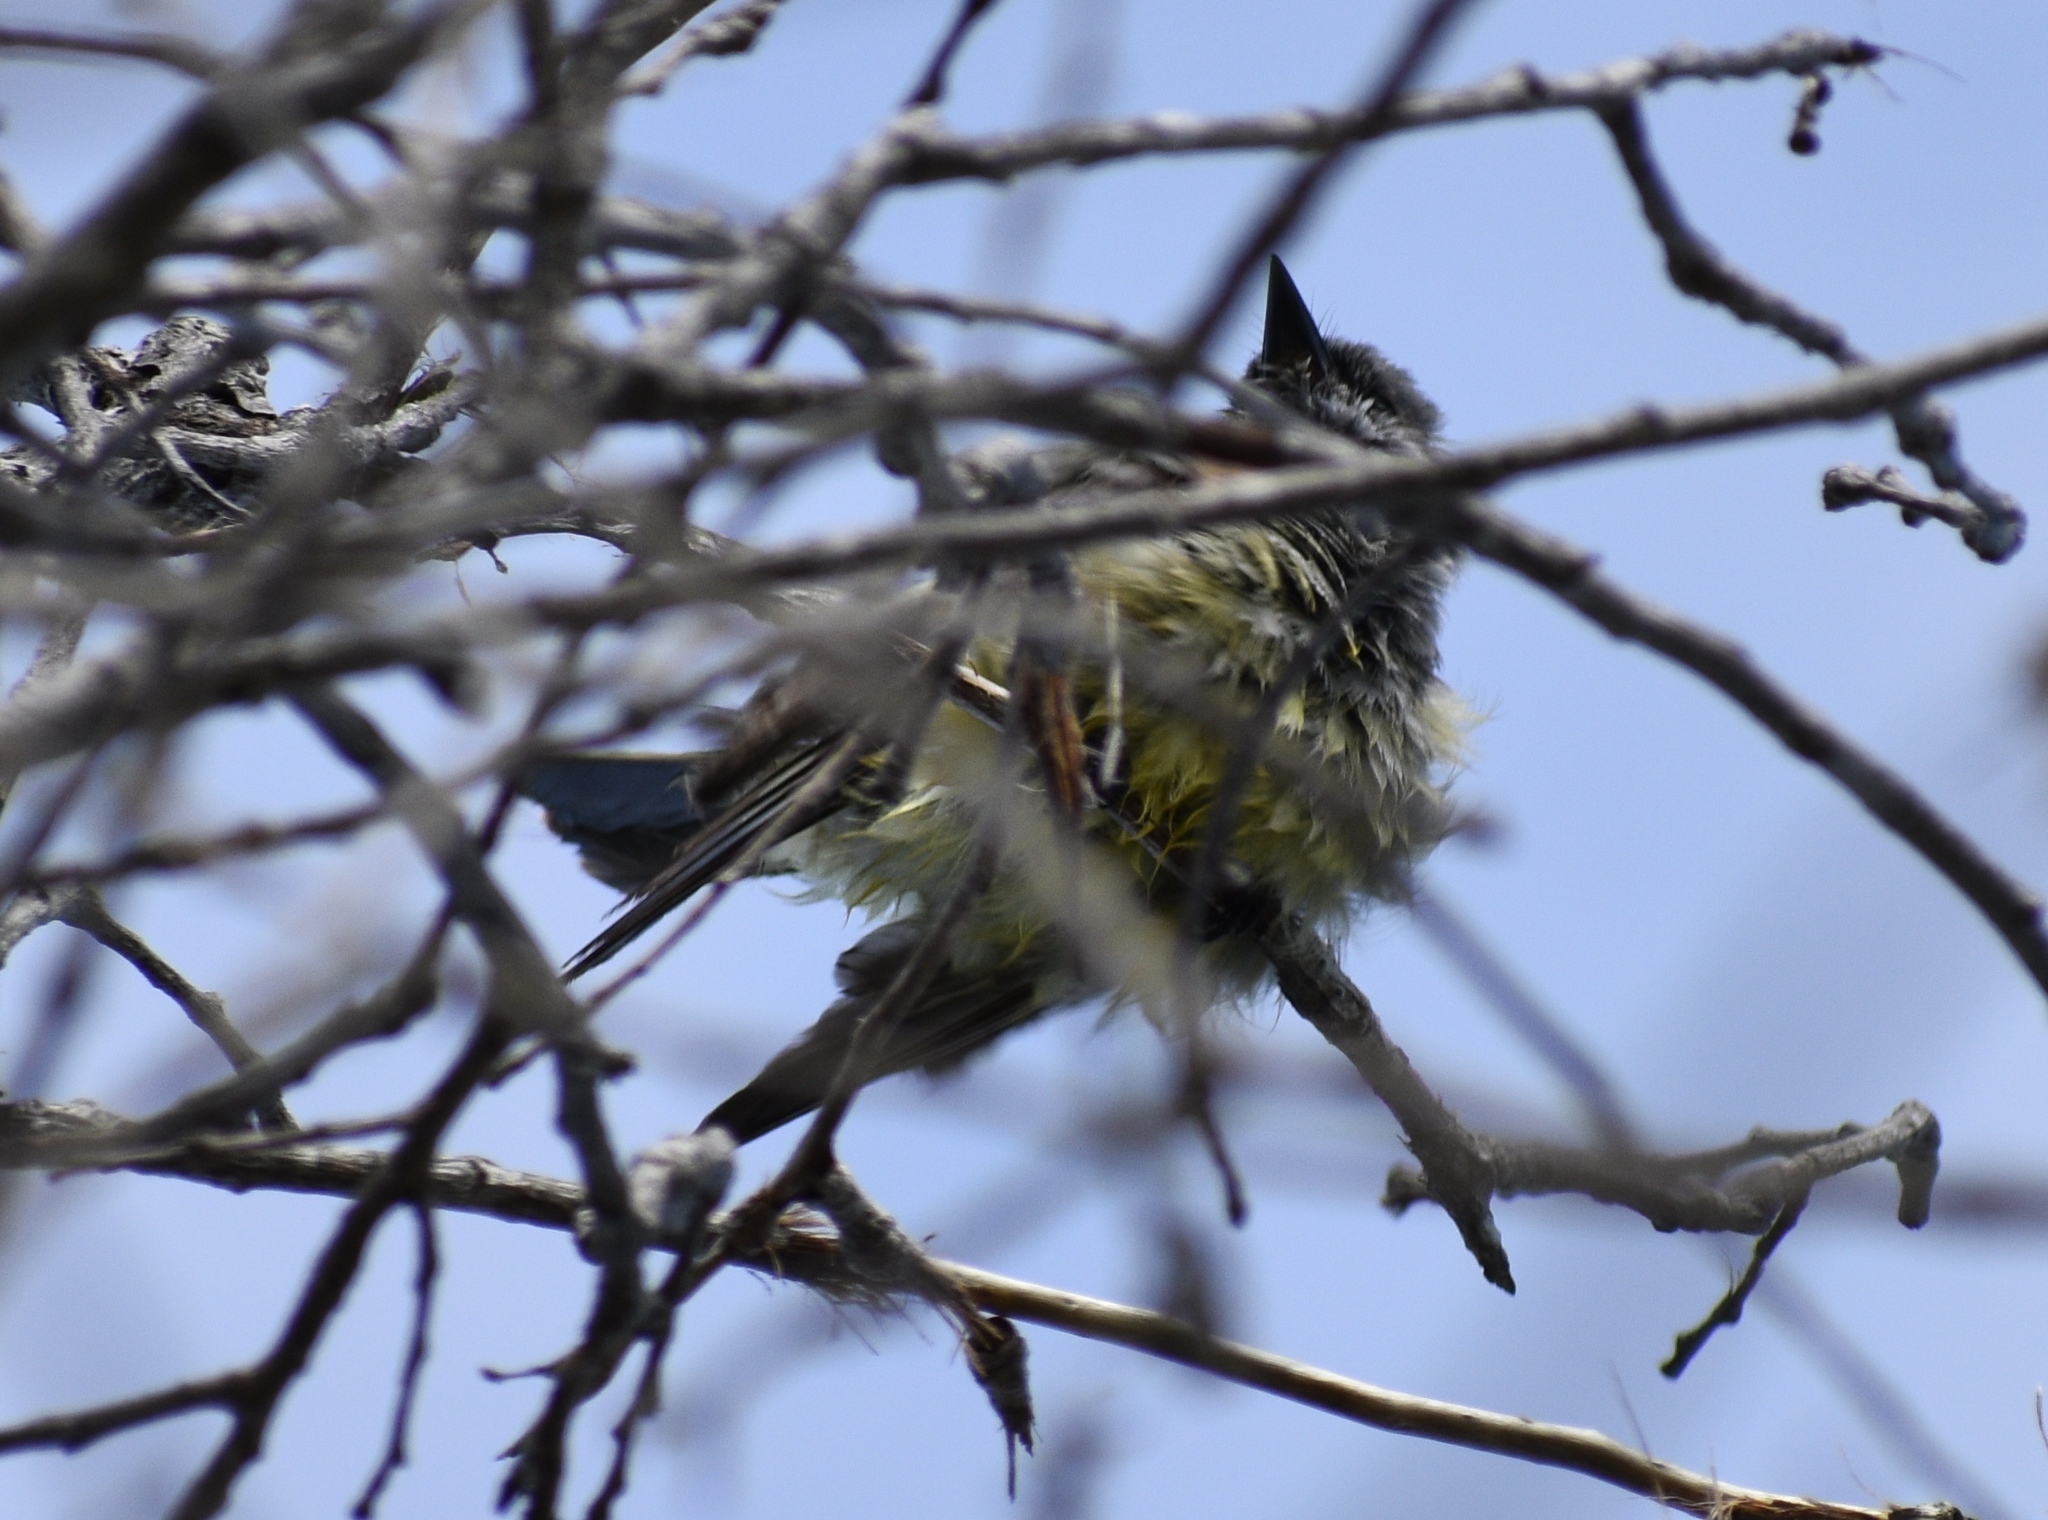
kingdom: Animalia
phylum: Chordata
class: Aves
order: Passeriformes
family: Tyrannidae
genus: Tyrannus
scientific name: Tyrannus vociferans
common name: Cassin's kingbird
